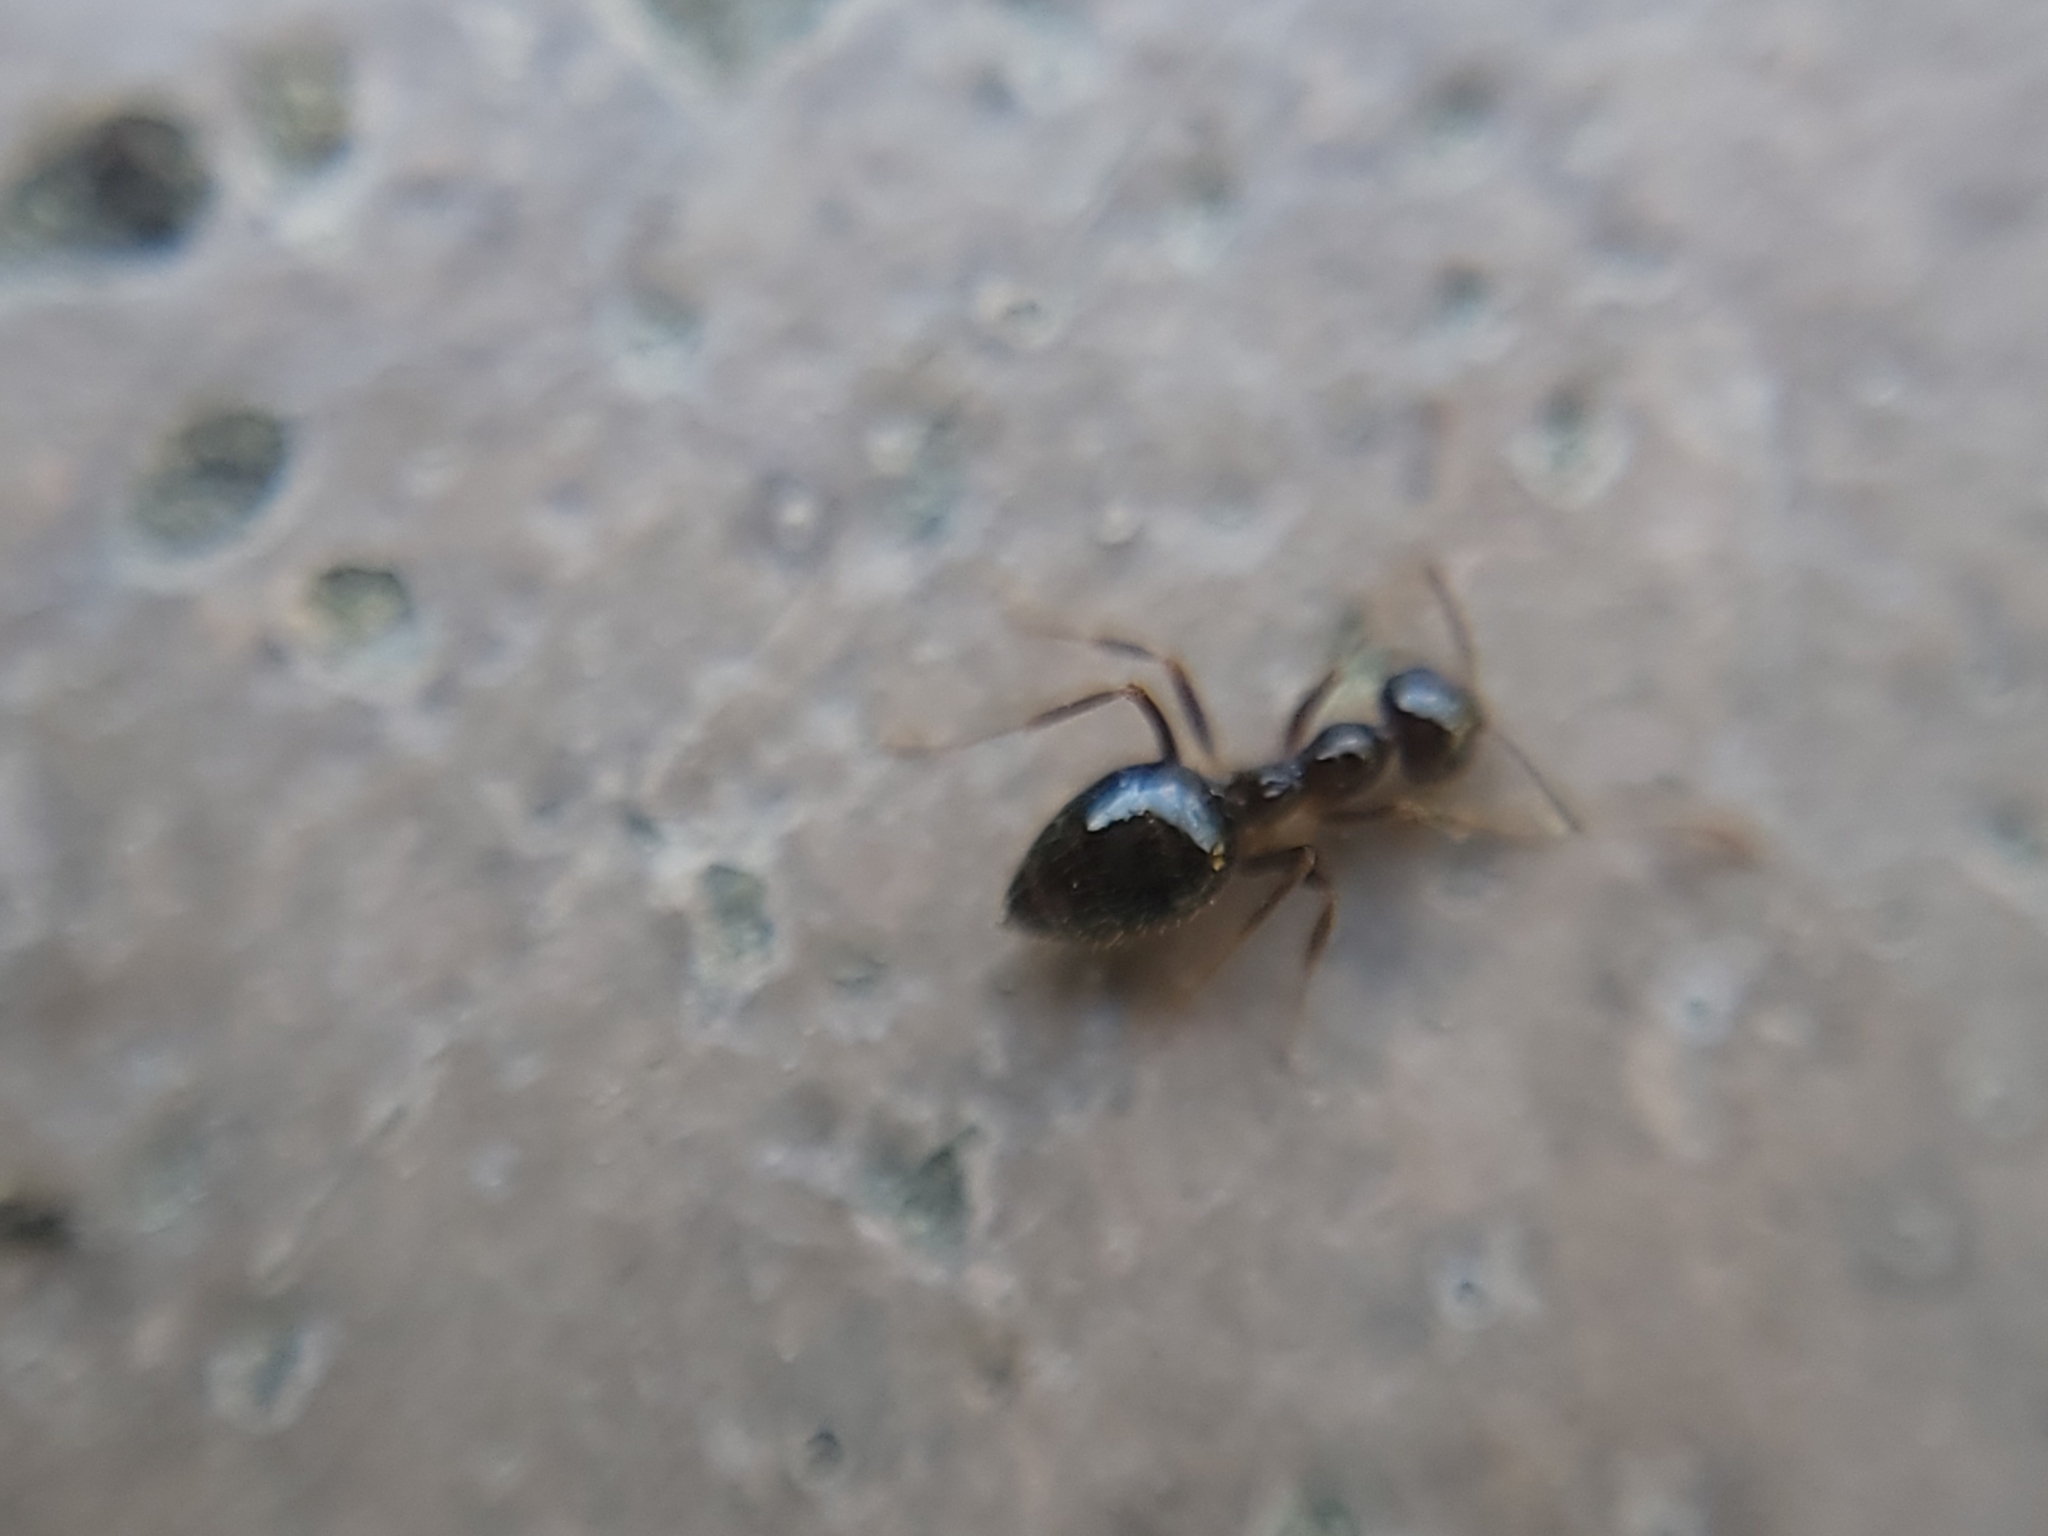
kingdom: Animalia
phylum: Arthropoda
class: Insecta
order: Hymenoptera
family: Formicidae
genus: Prenolepis
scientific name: Prenolepis imparis
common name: Small honey ant
